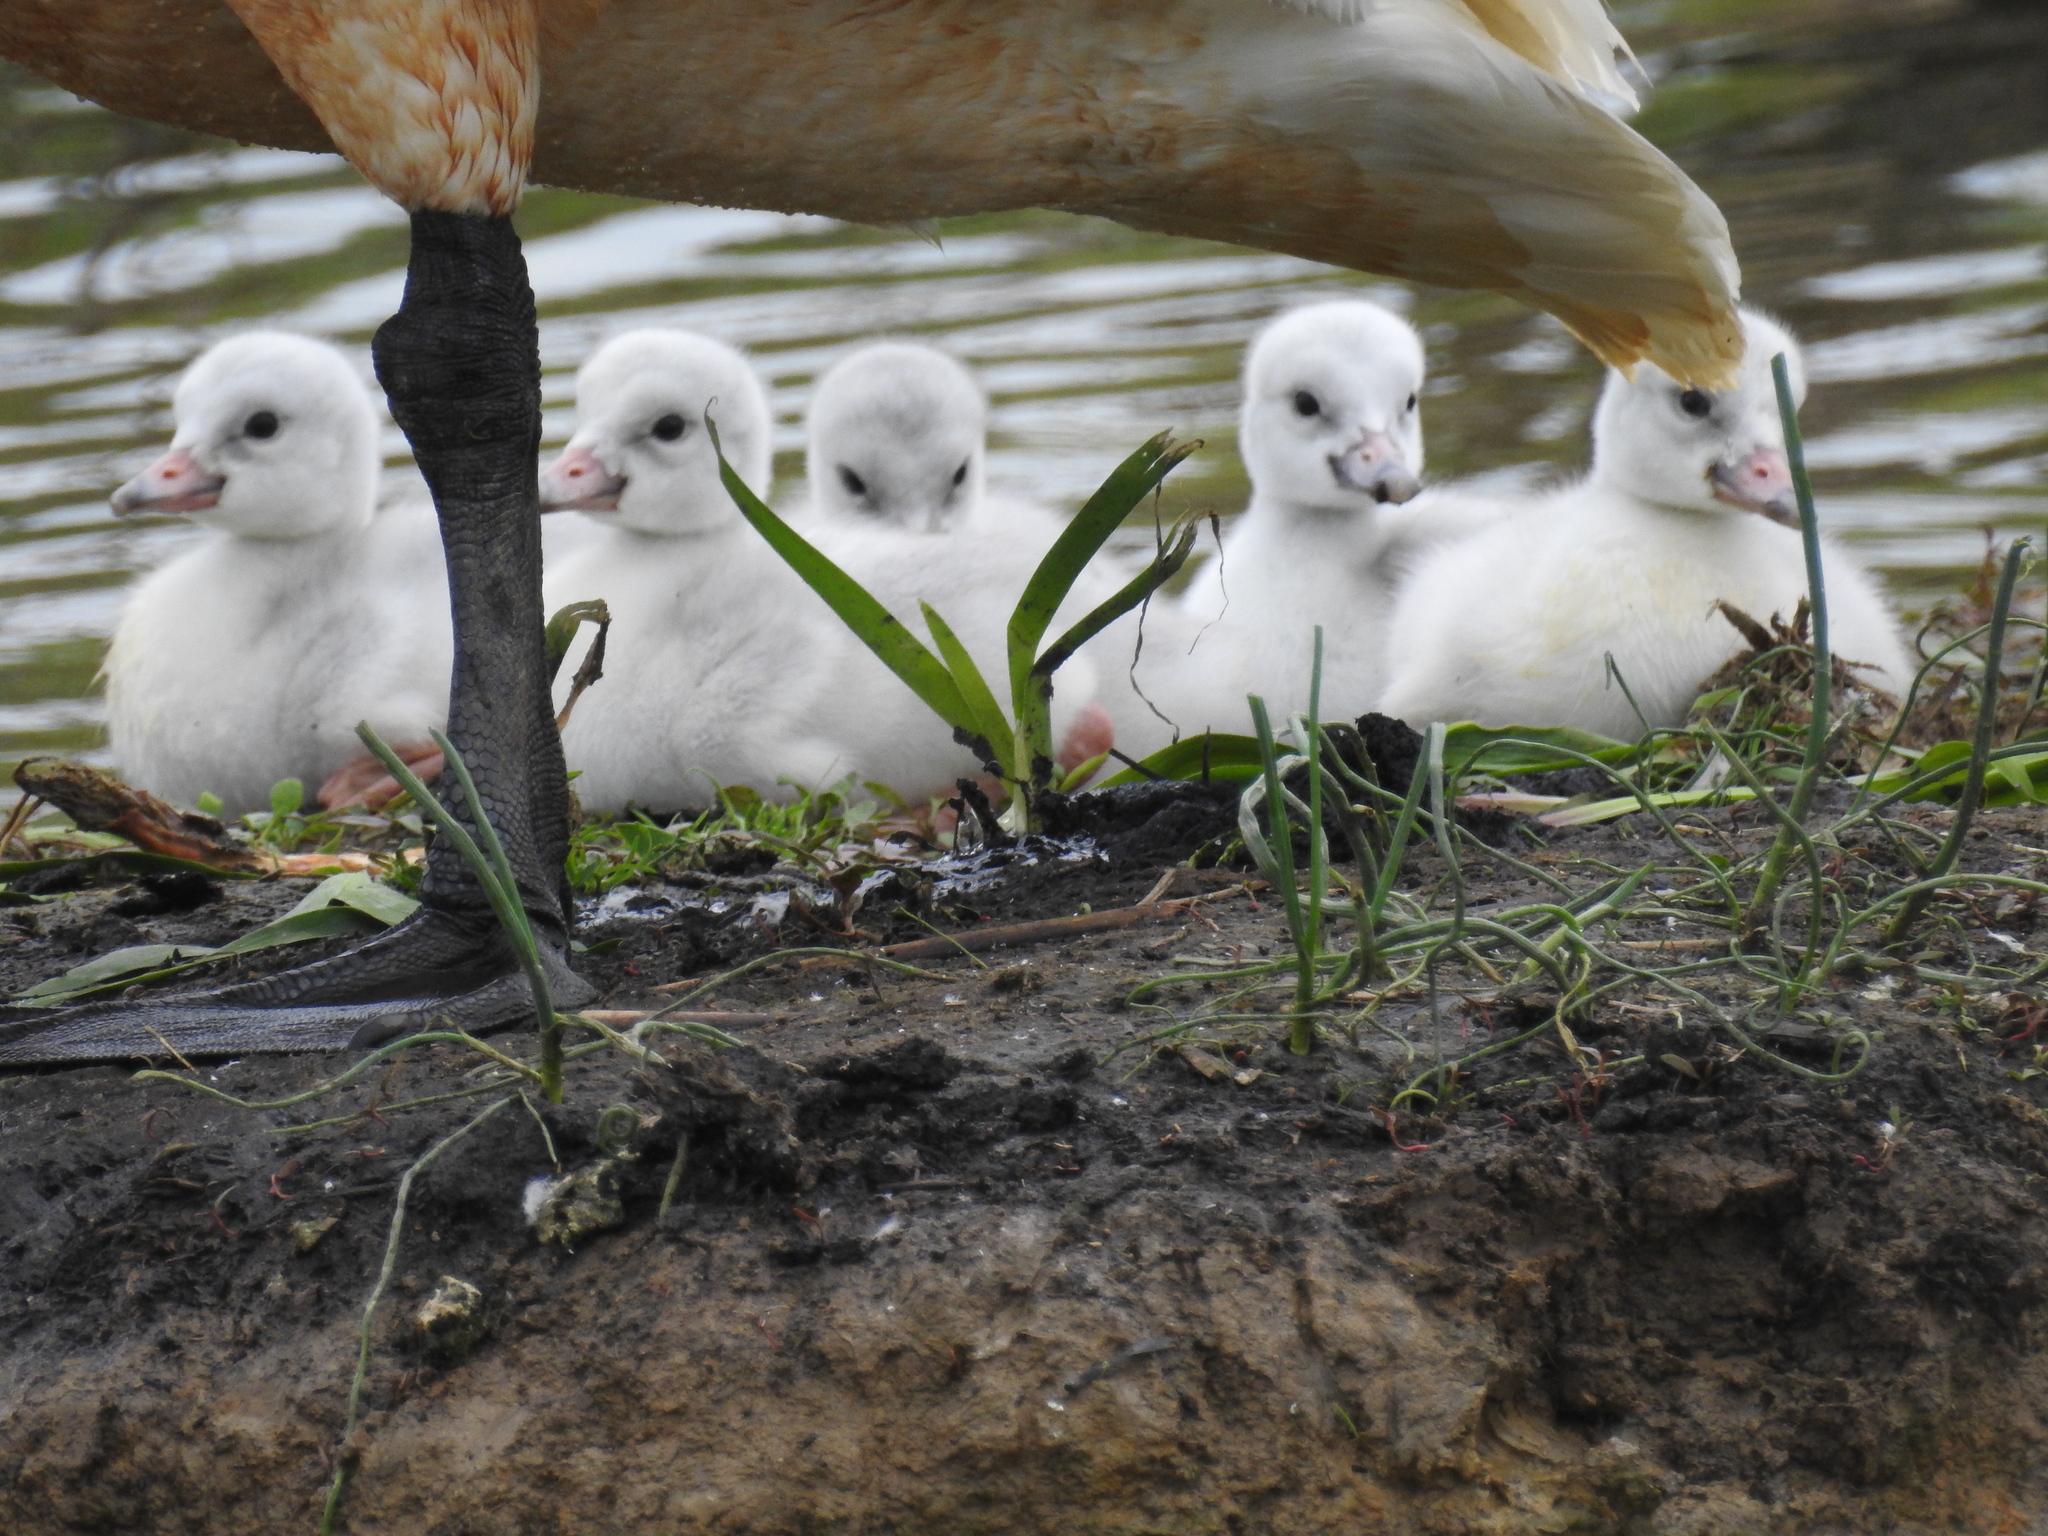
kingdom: Animalia
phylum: Chordata
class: Aves
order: Anseriformes
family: Anatidae
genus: Cygnus
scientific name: Cygnus buccinator
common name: Trumpeter swan
